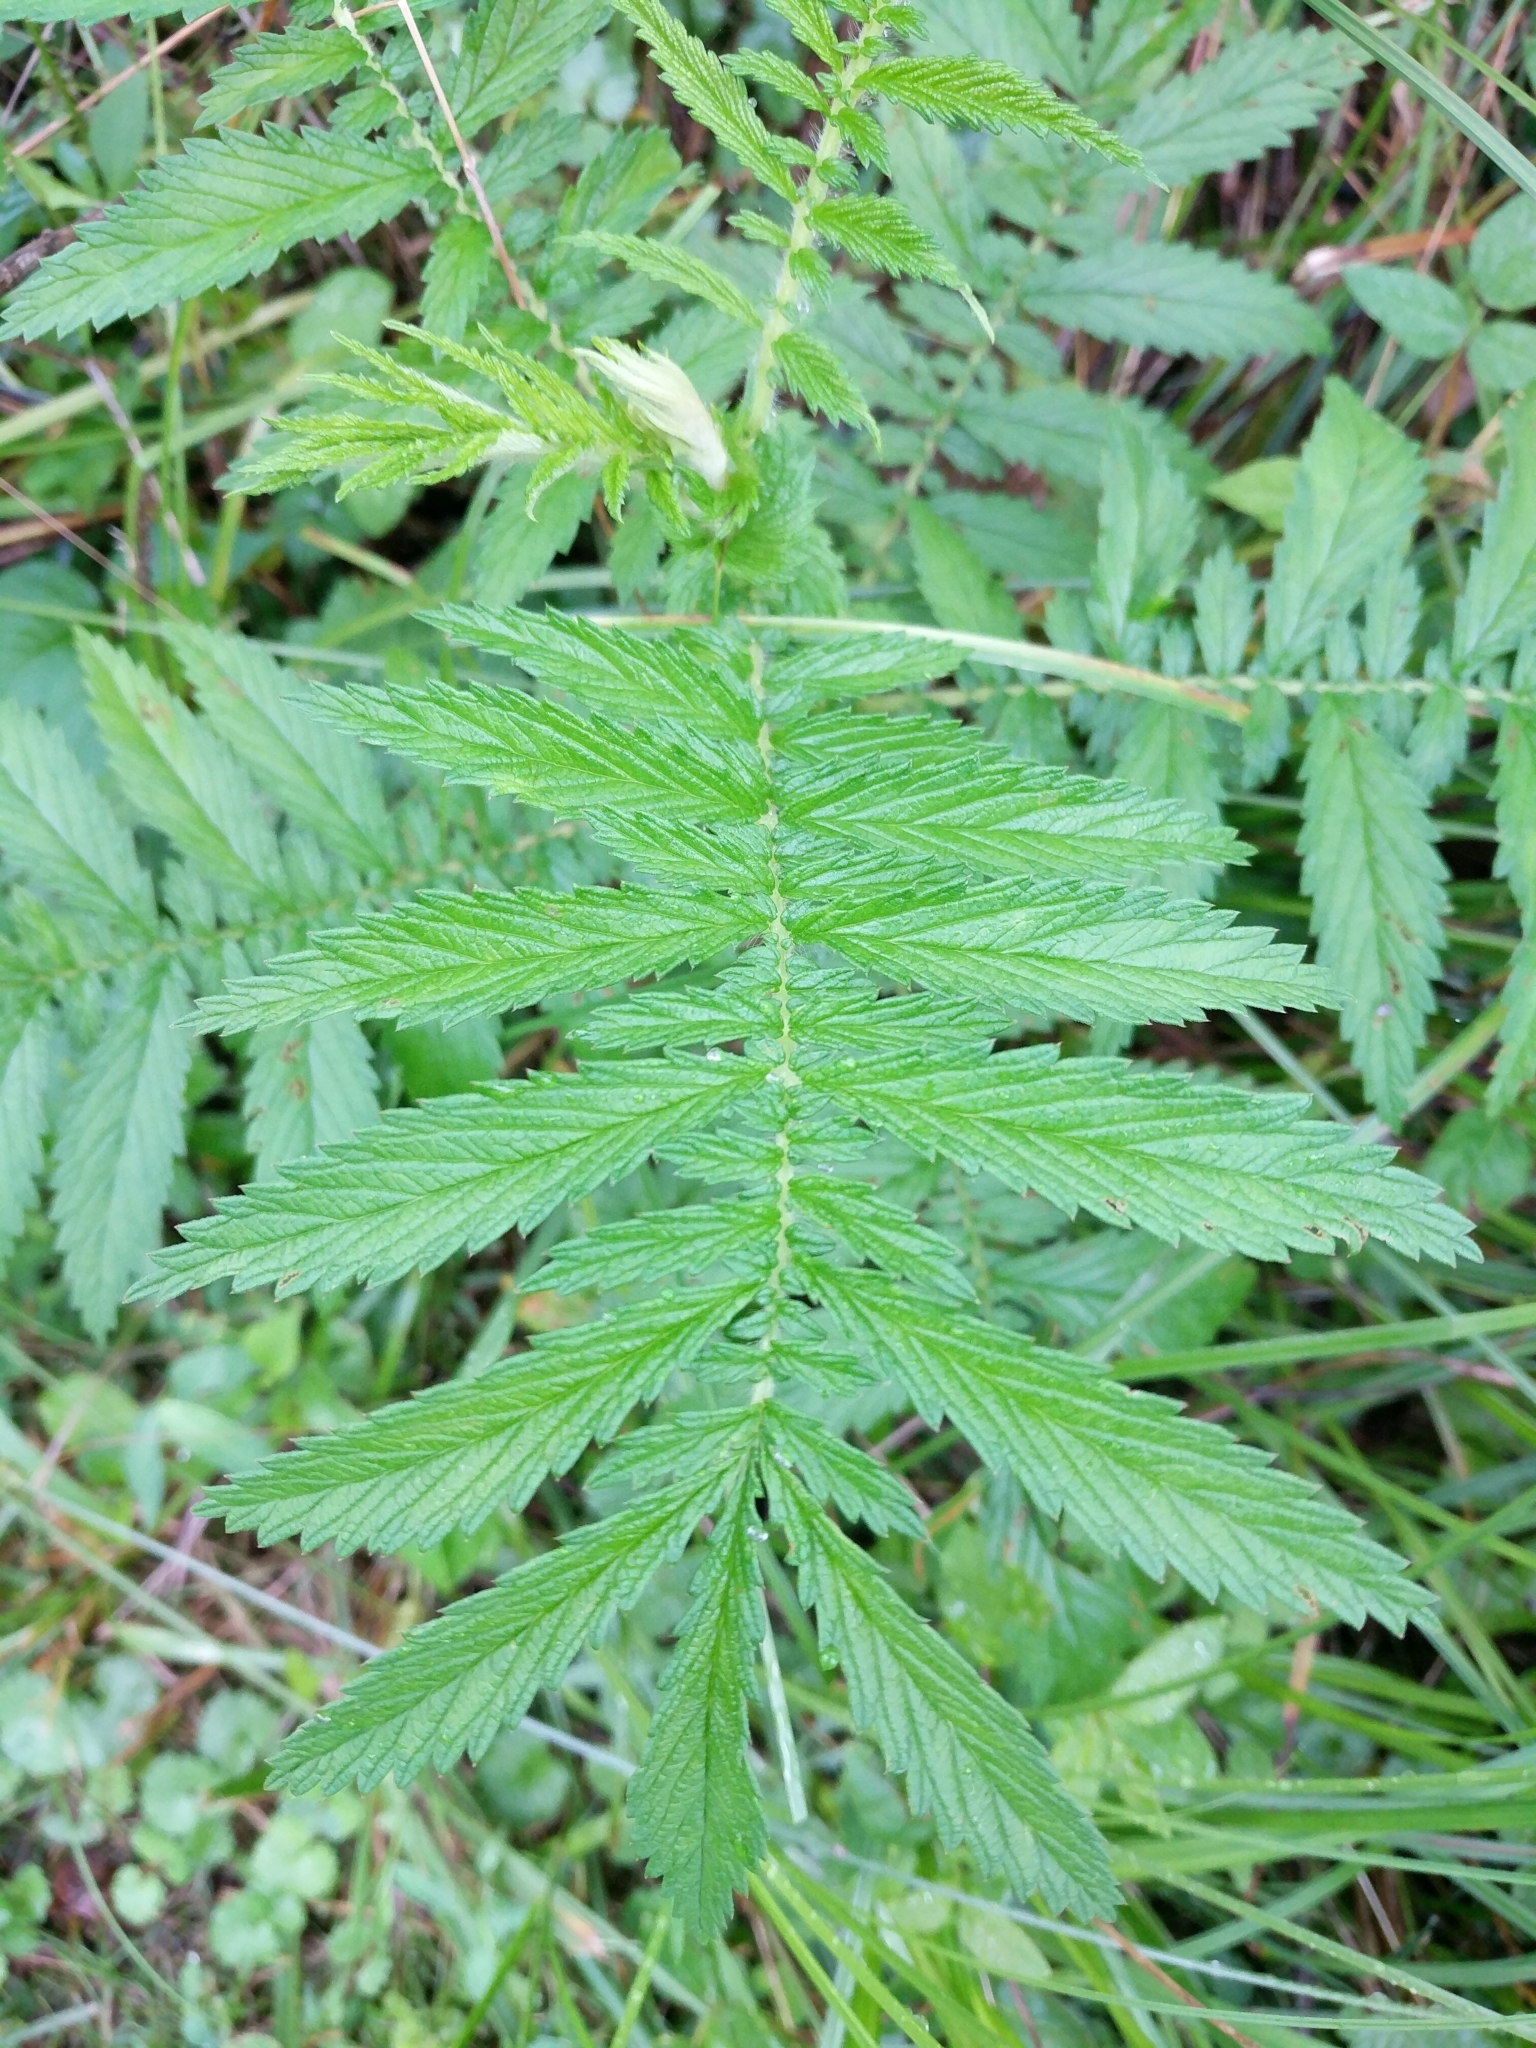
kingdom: Plantae
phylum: Tracheophyta
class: Magnoliopsida
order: Rosales
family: Rosaceae
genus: Agrimonia
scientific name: Agrimonia parviflora
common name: Harvest-lice
